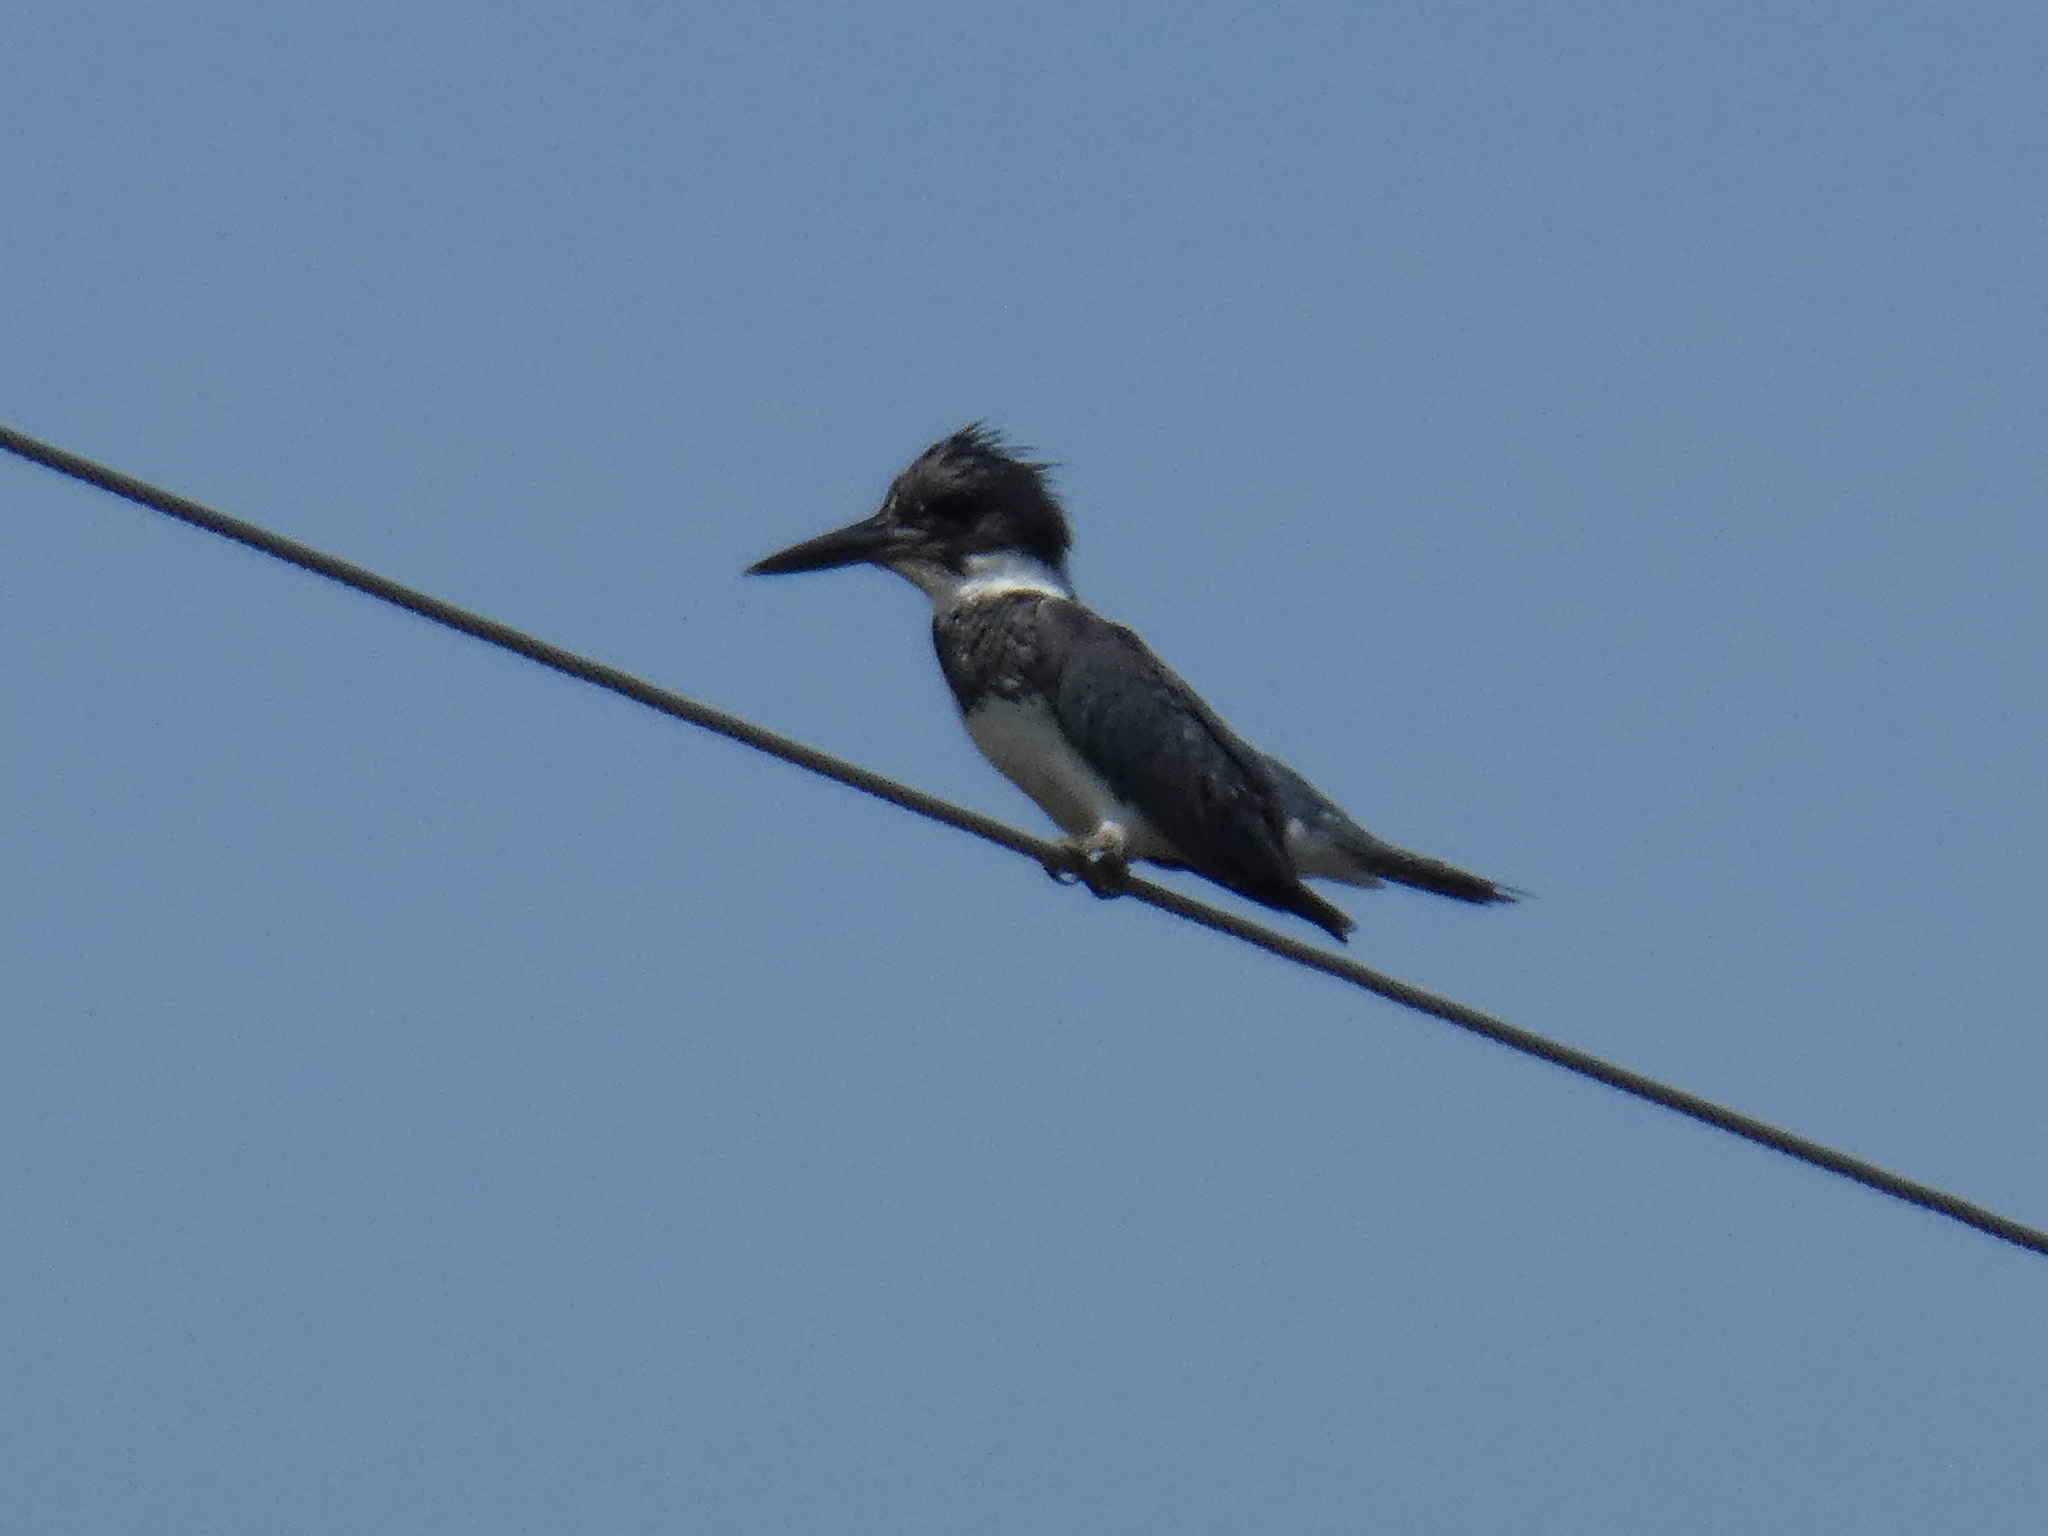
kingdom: Animalia
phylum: Chordata
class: Aves
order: Coraciiformes
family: Alcedinidae
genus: Megaceryle
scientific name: Megaceryle alcyon
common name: Belted kingfisher
